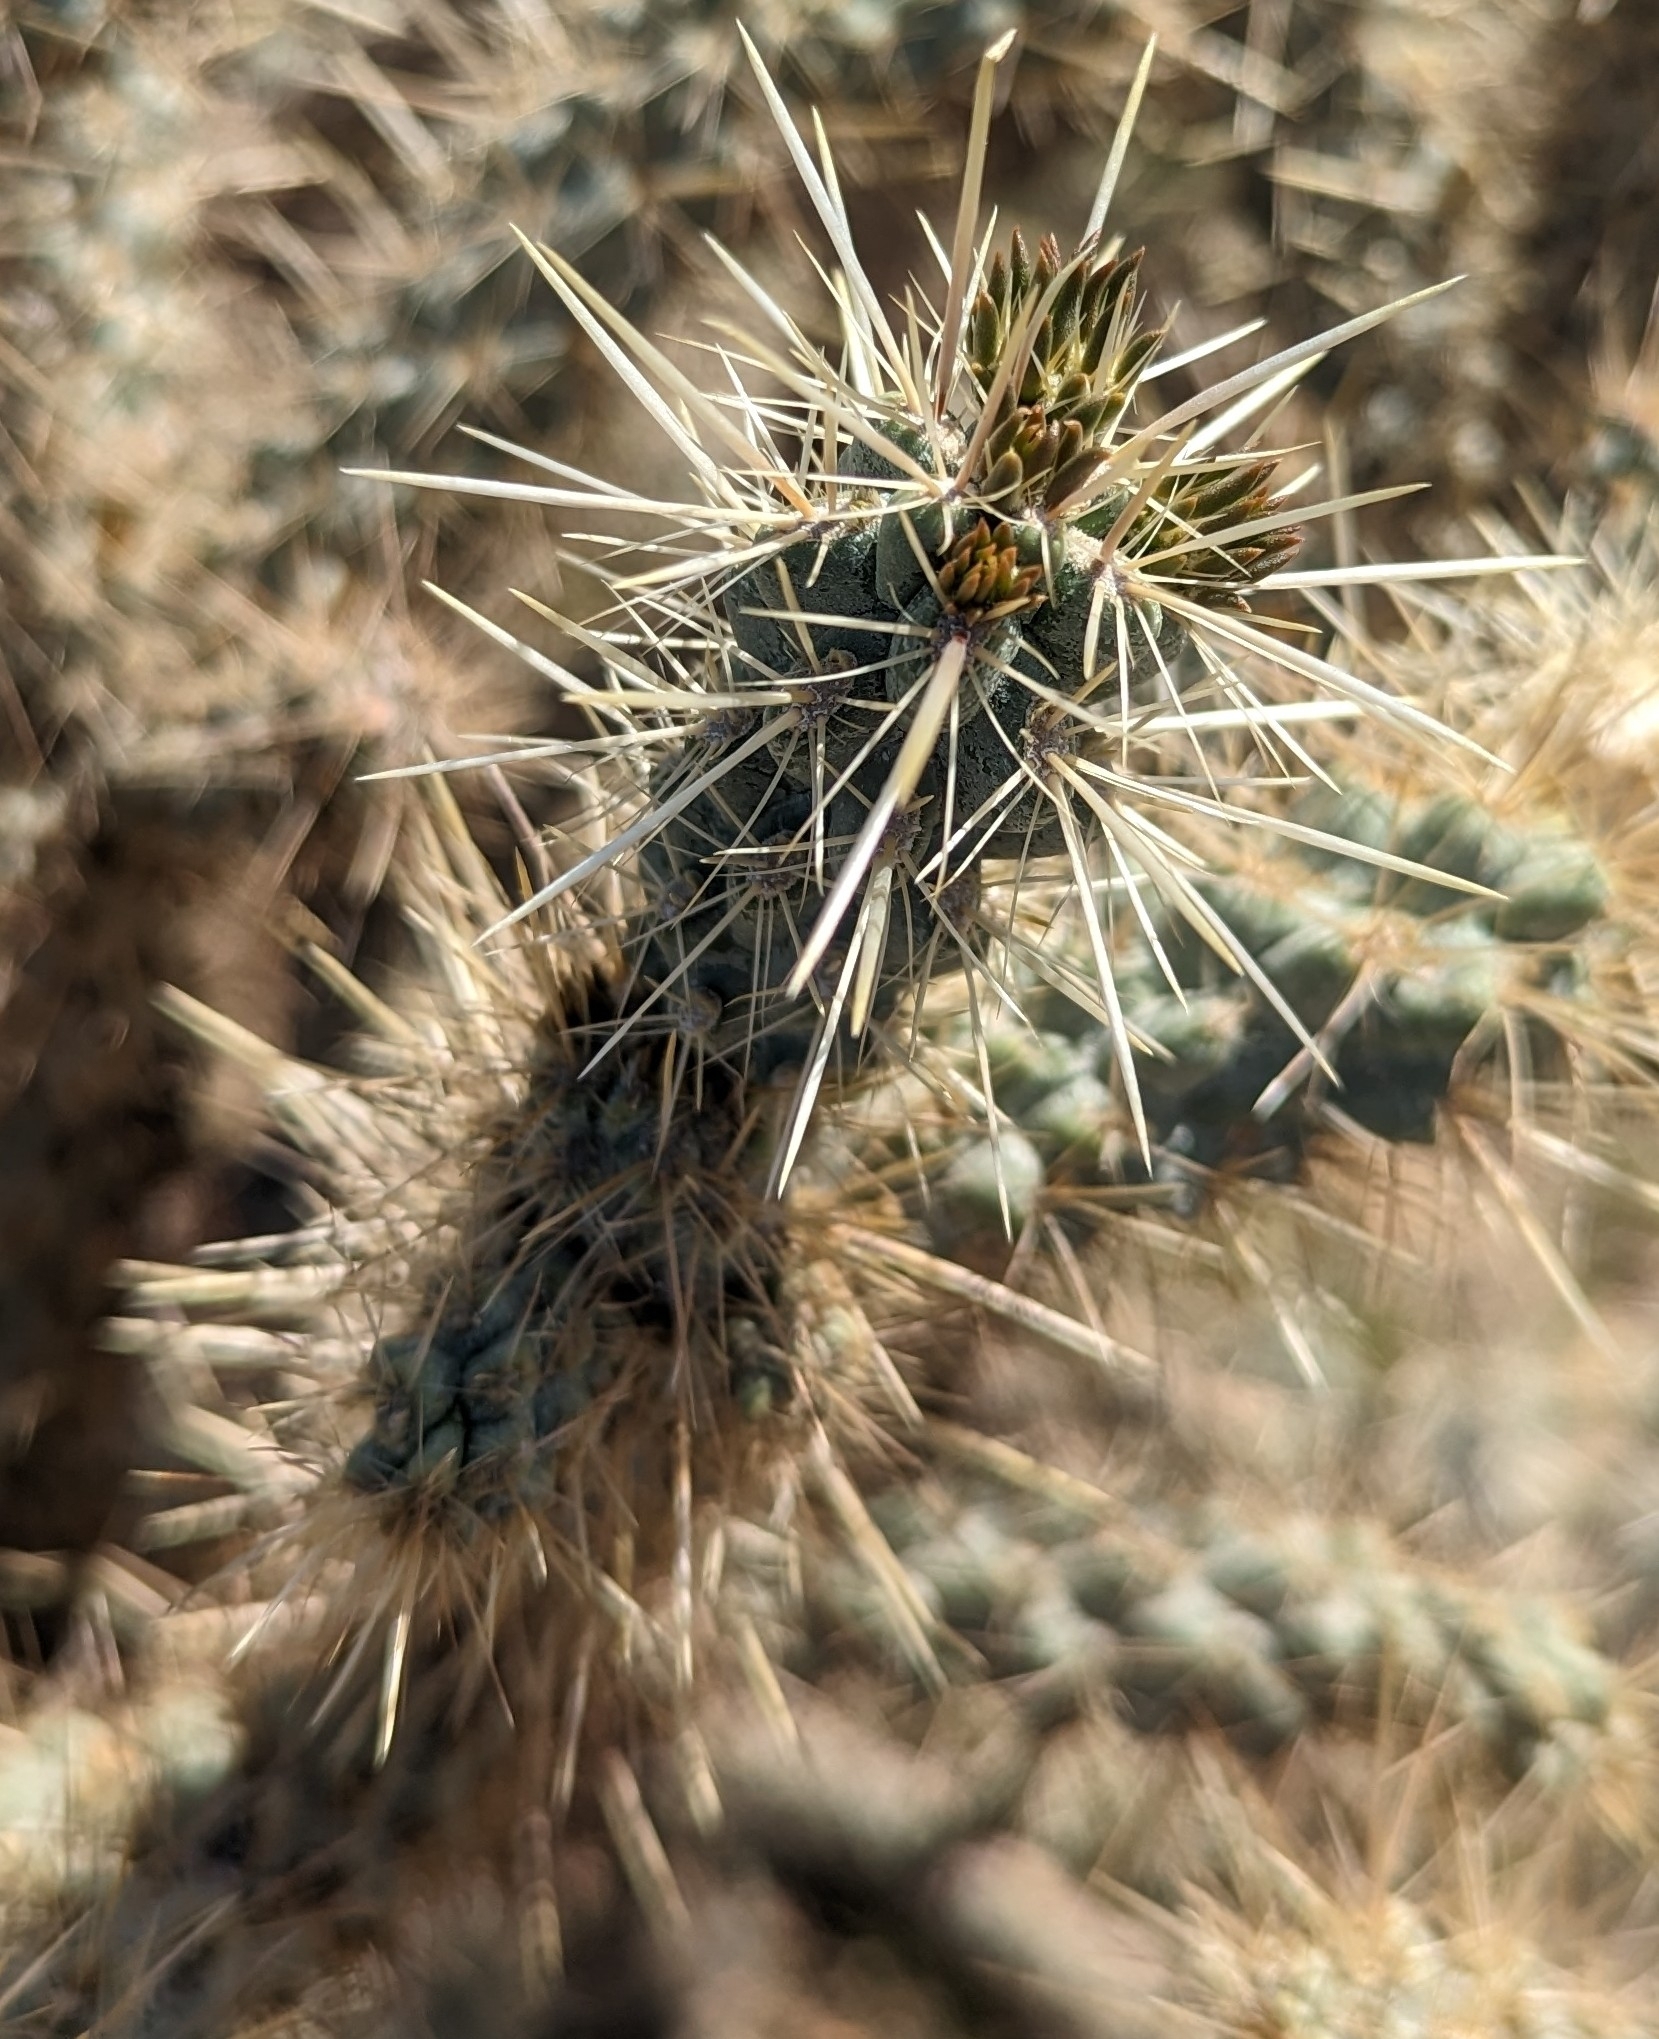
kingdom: Plantae
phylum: Tracheophyta
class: Magnoliopsida
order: Caryophyllales
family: Cactaceae
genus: Cylindropuntia
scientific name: Cylindropuntia echinocarpa
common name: Ground cholla
